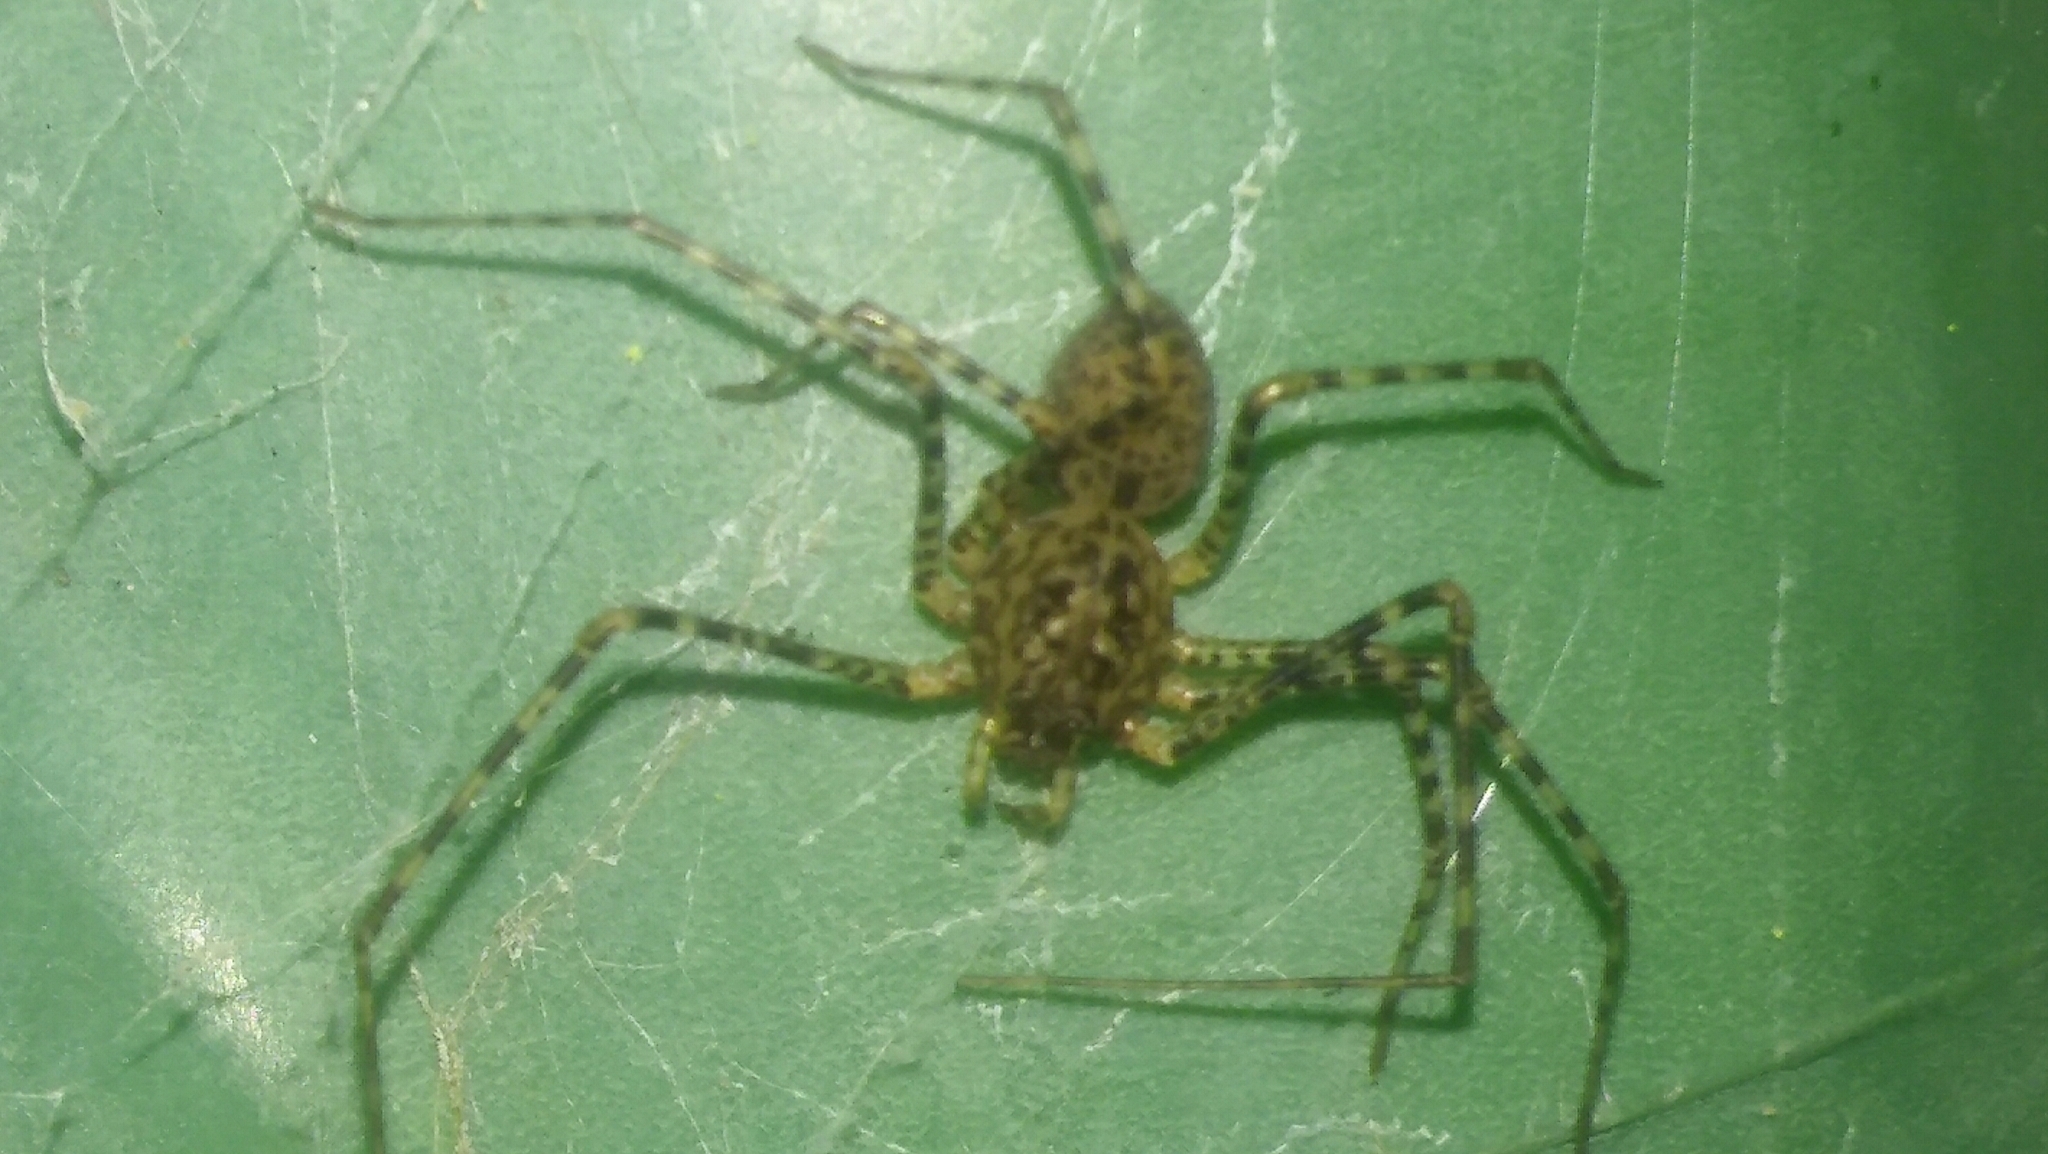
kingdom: Animalia
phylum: Arthropoda
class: Arachnida
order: Araneae
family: Scytodidae
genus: Scytodes
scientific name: Scytodes globula
